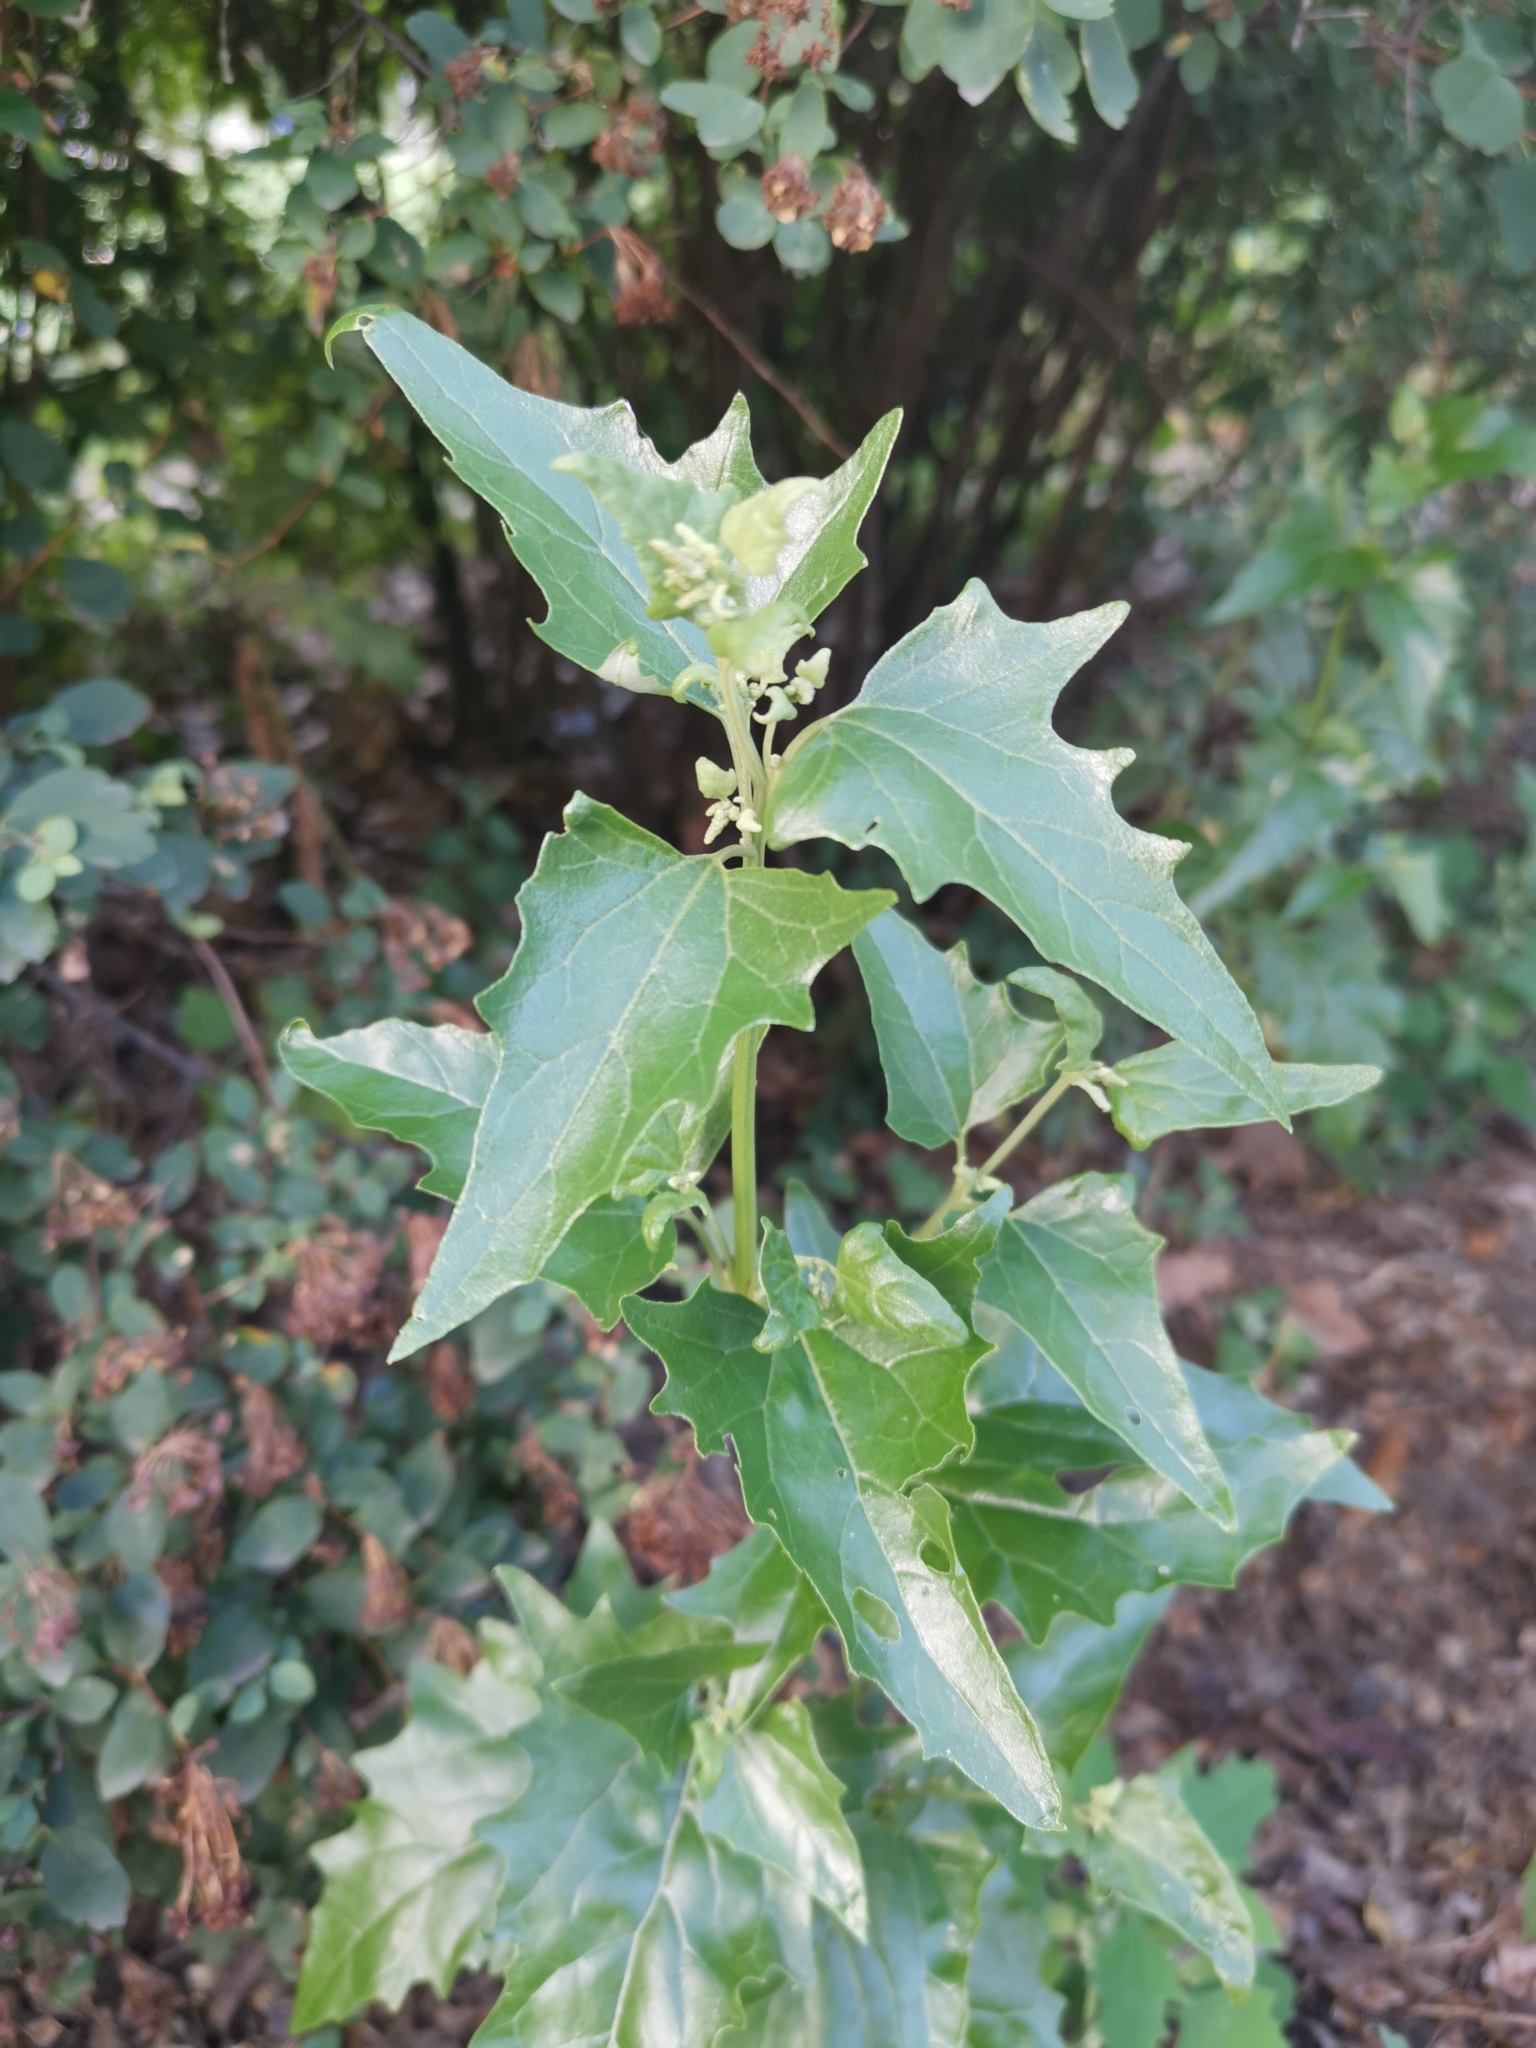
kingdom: Plantae
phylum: Tracheophyta
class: Magnoliopsida
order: Caryophyllales
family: Amaranthaceae
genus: Atriplex
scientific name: Atriplex sagittata
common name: Purple orache
